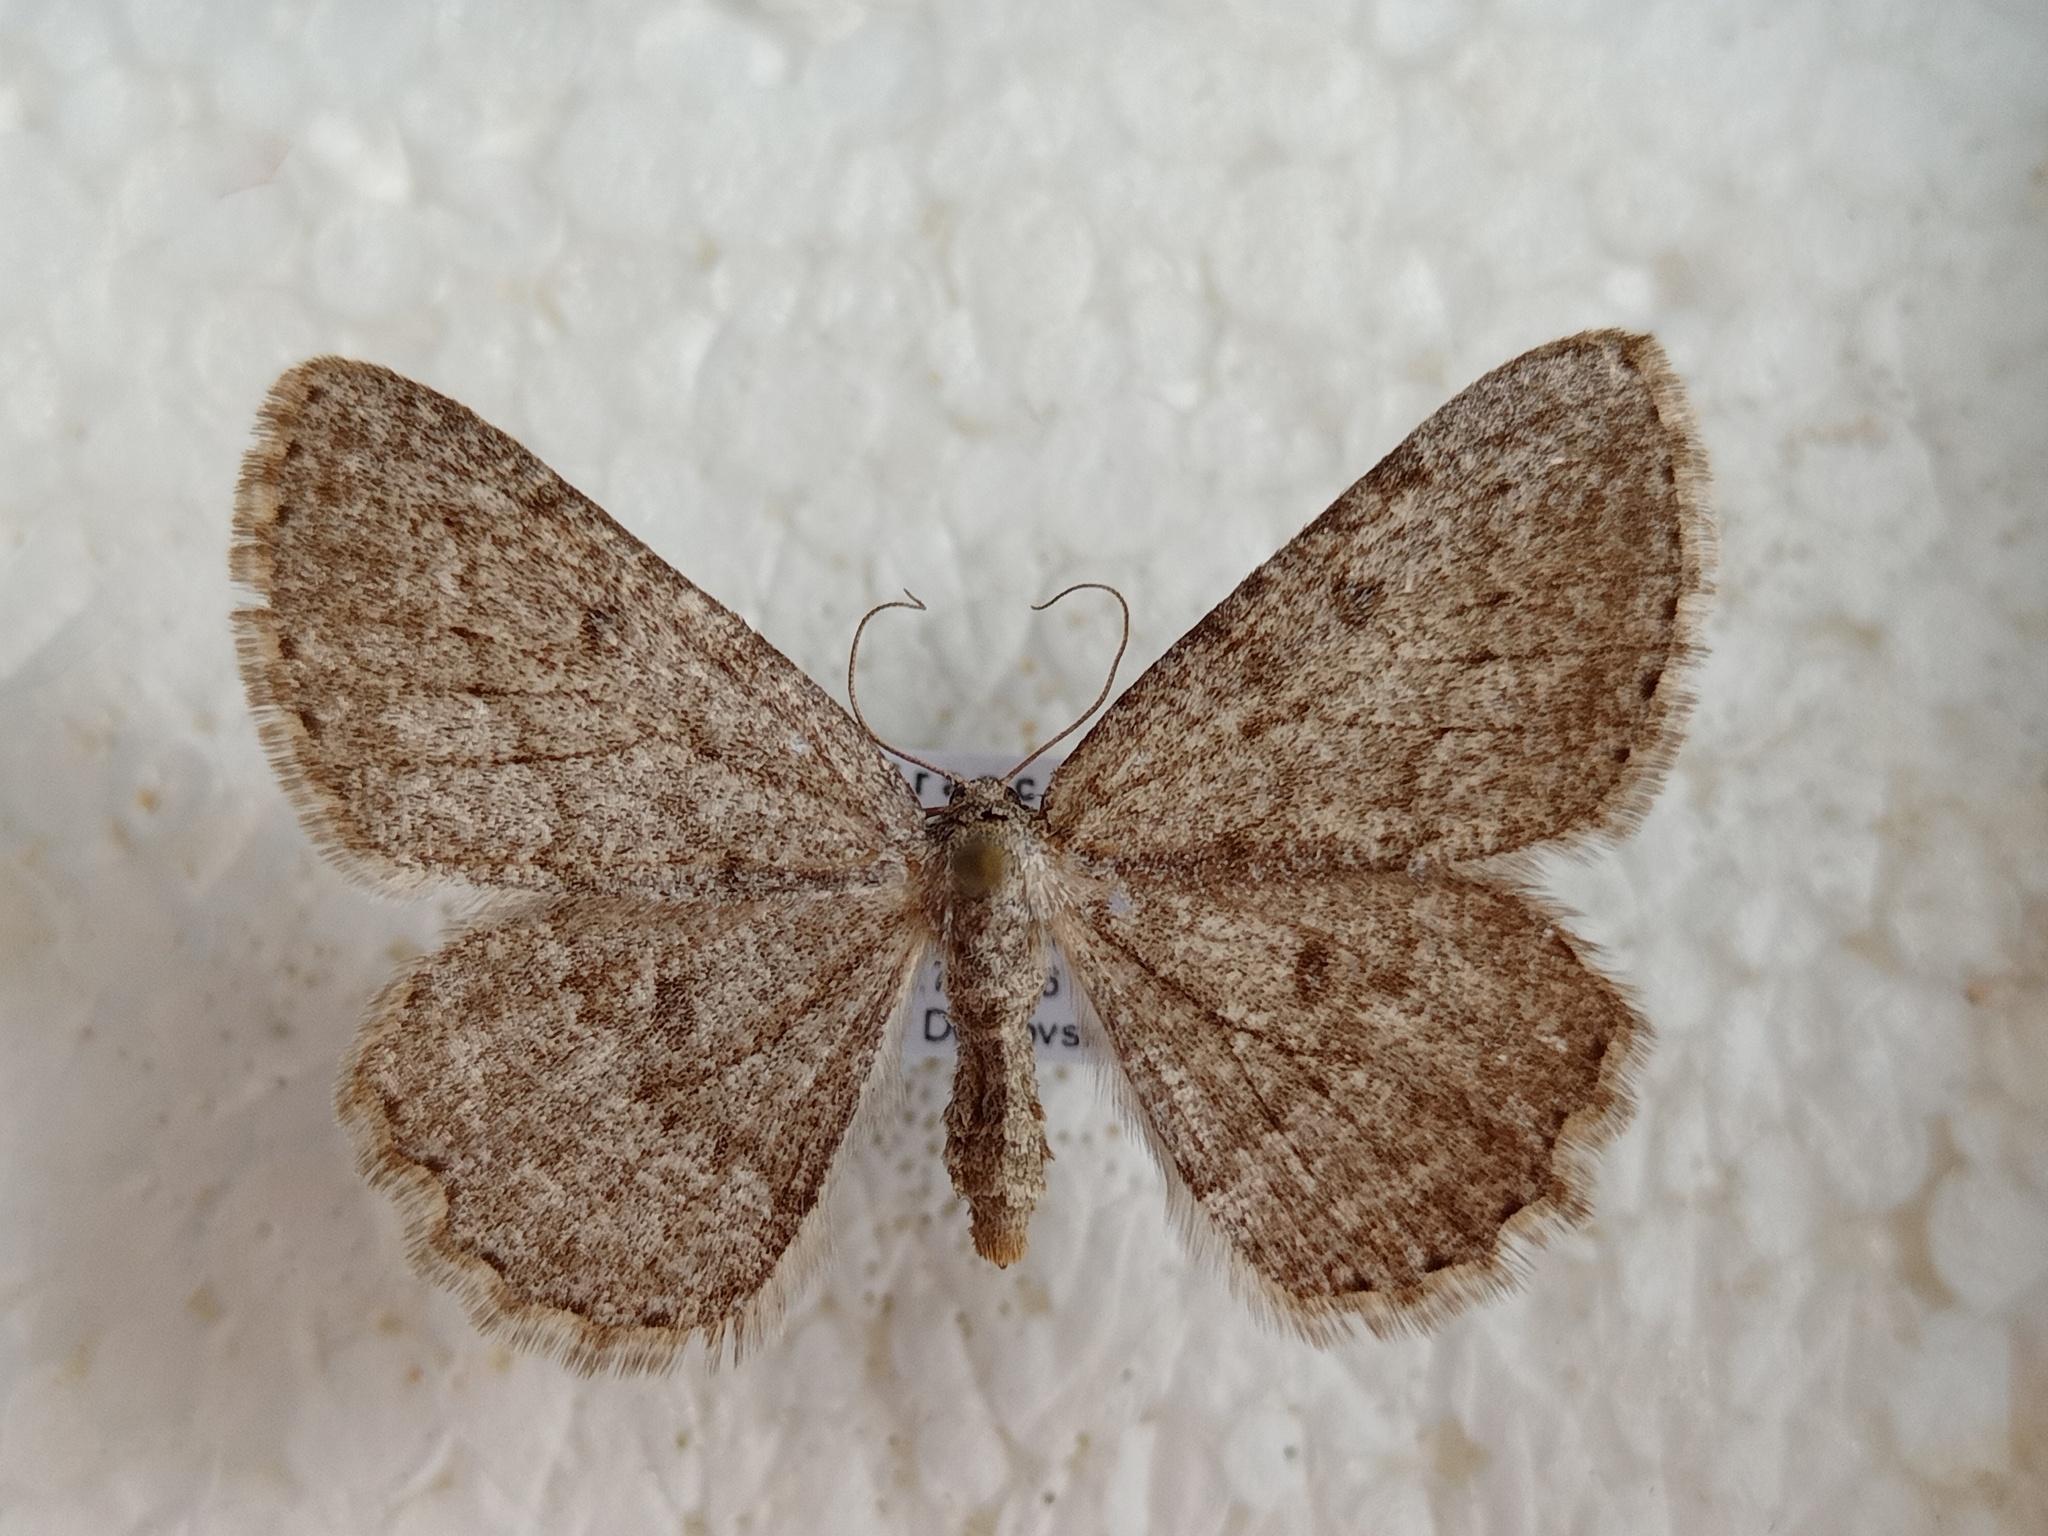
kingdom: Animalia
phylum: Arthropoda
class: Insecta
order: Lepidoptera
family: Geometridae
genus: Charissa
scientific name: Charissa ambiguata
